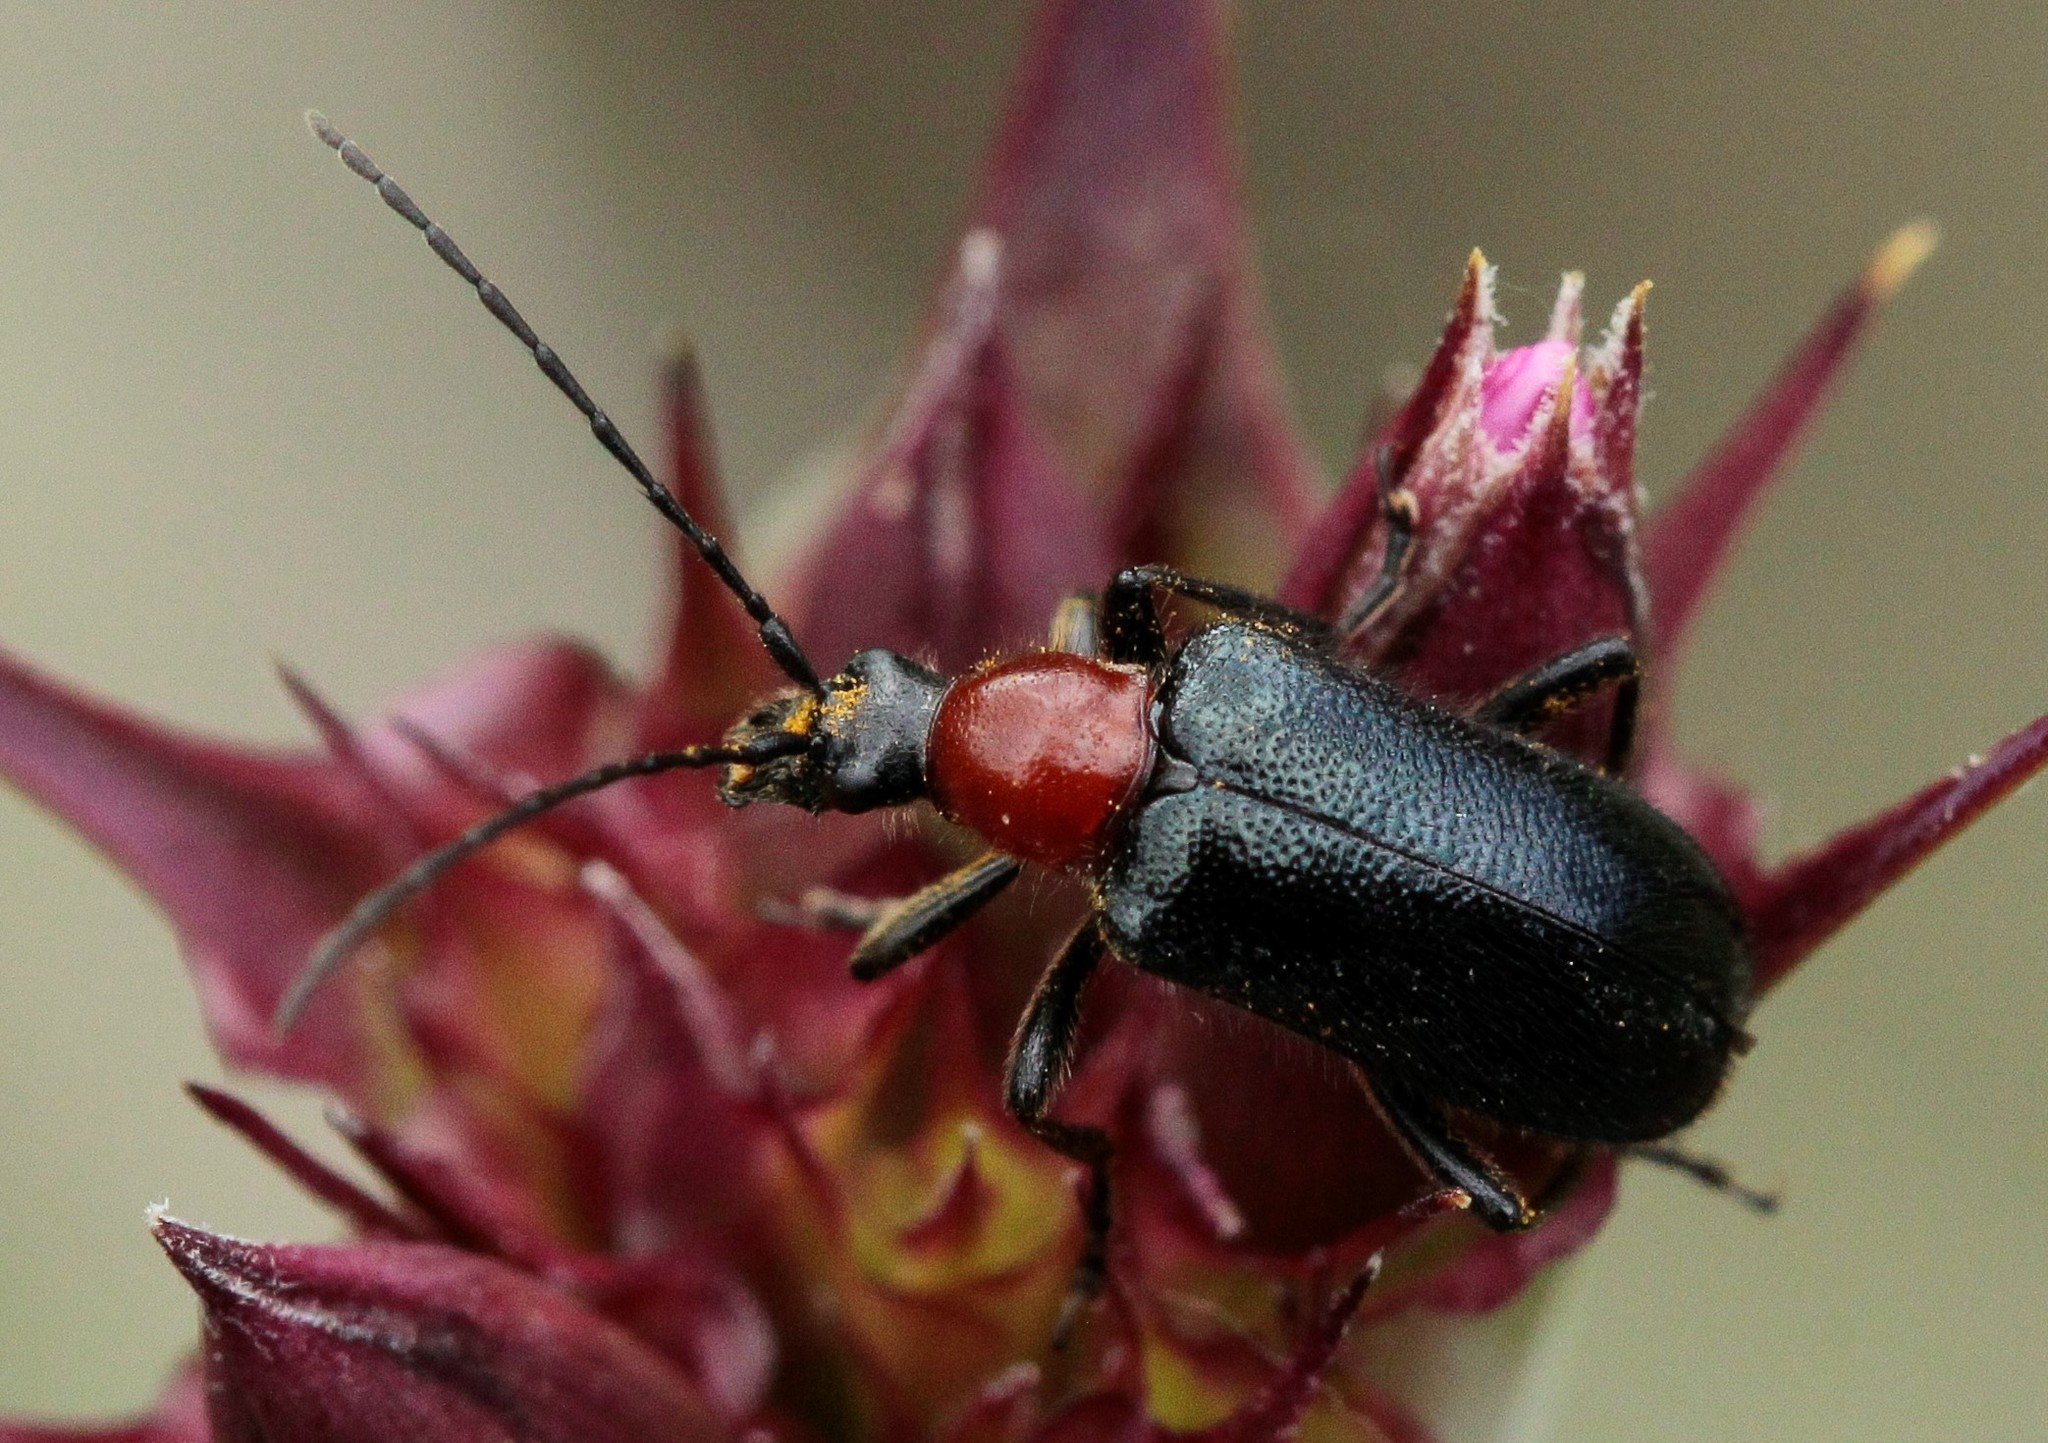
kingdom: Animalia
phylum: Arthropoda
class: Insecta
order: Coleoptera
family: Cerambycidae
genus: Dinoptera
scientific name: Dinoptera collaris
